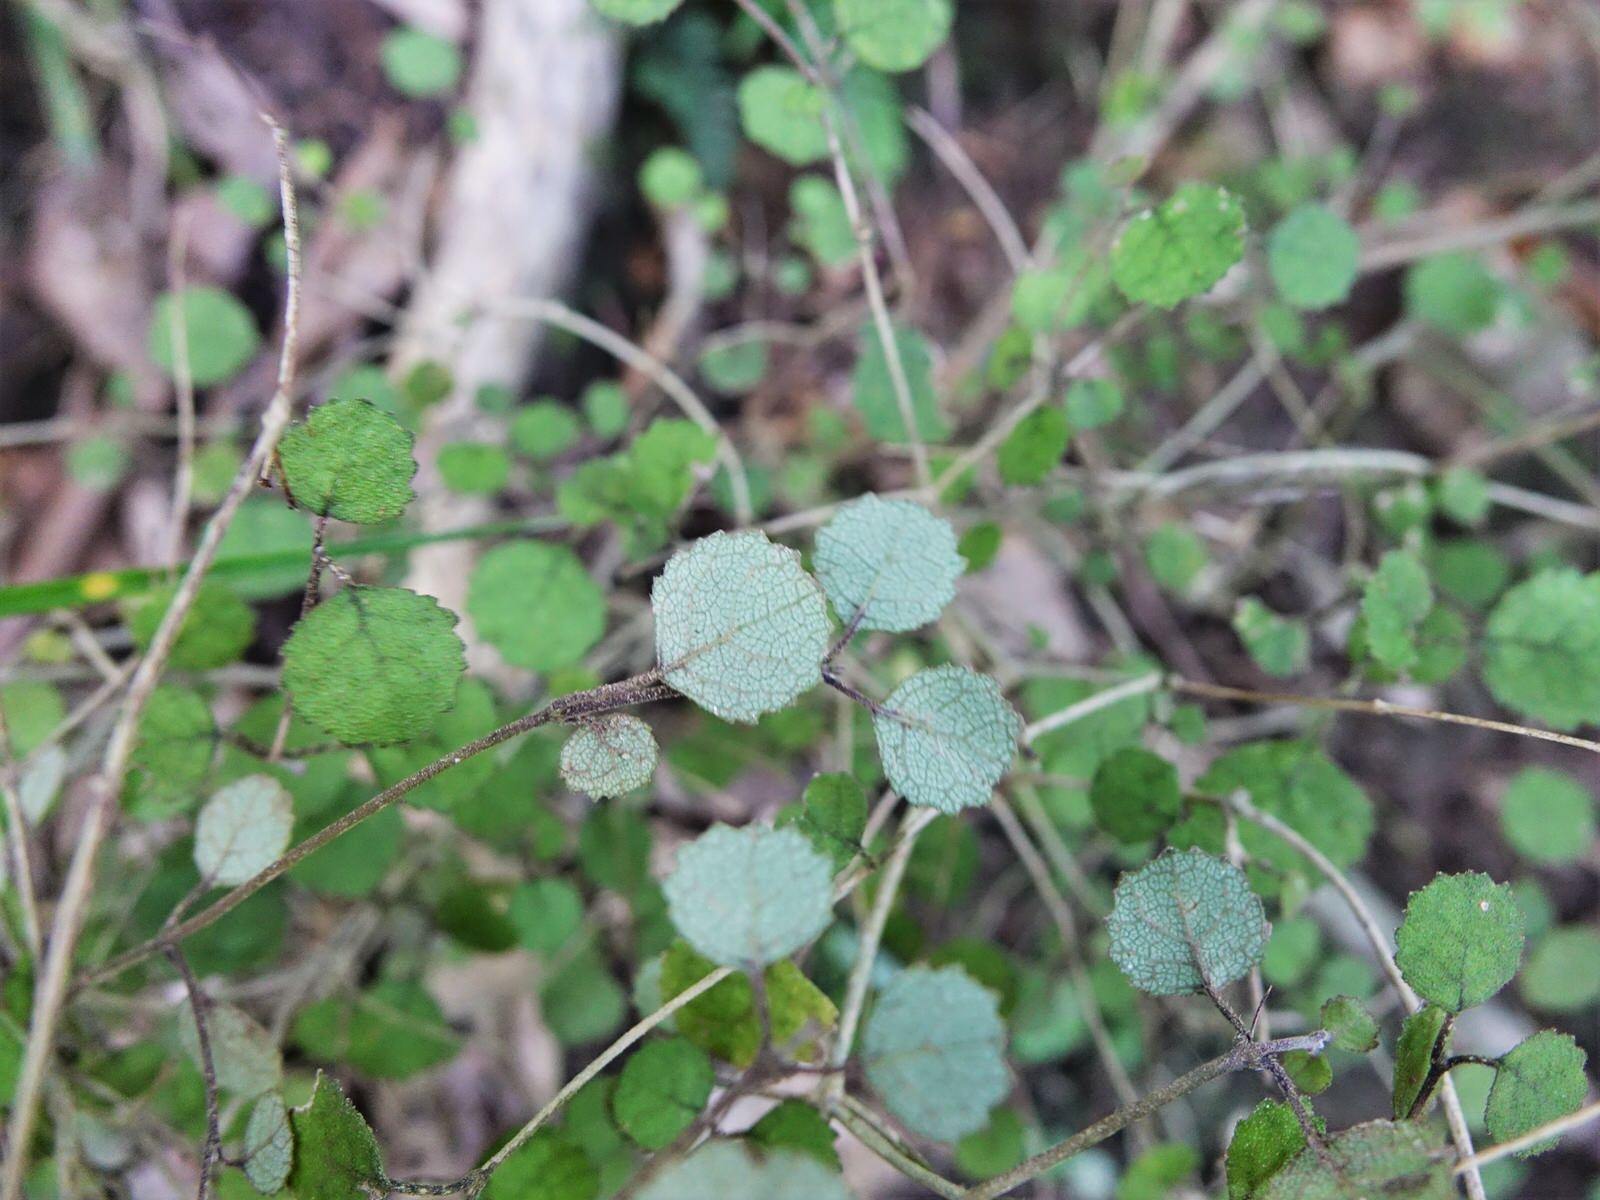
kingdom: Plantae
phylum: Tracheophyta
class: Magnoliopsida
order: Lamiales
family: Gesneriaceae
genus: Rhabdothamnus
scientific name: Rhabdothamnus solandri
